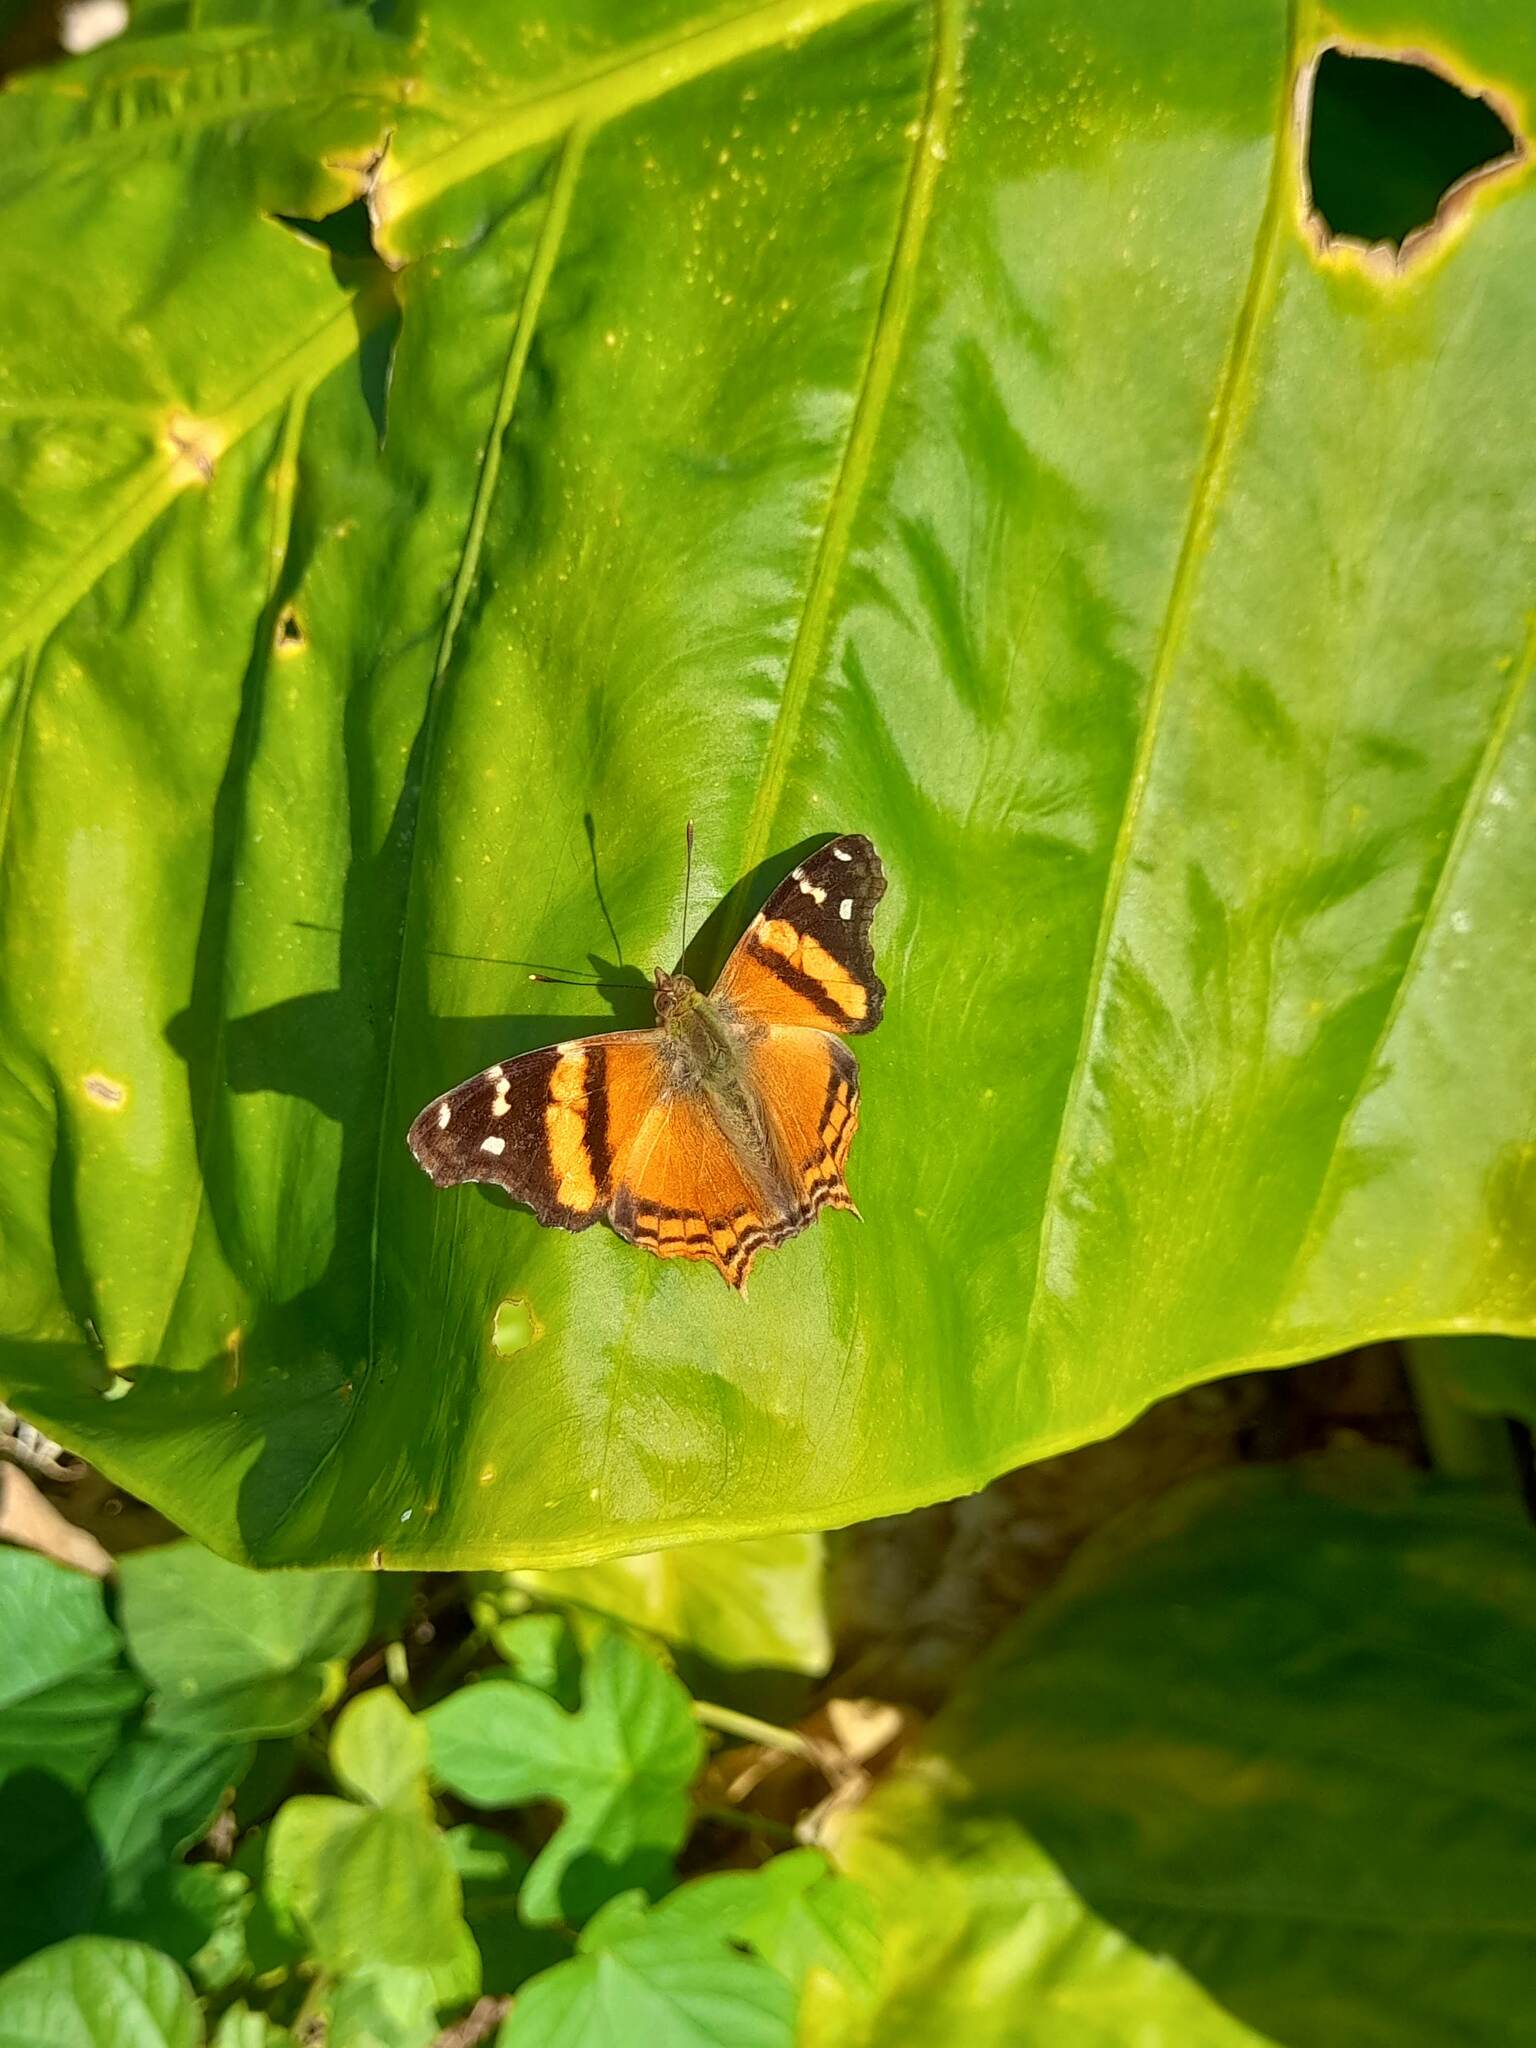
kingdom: Animalia
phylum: Arthropoda
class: Insecta
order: Lepidoptera
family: Nymphalidae
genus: Hypanartia
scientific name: Hypanartia bella
